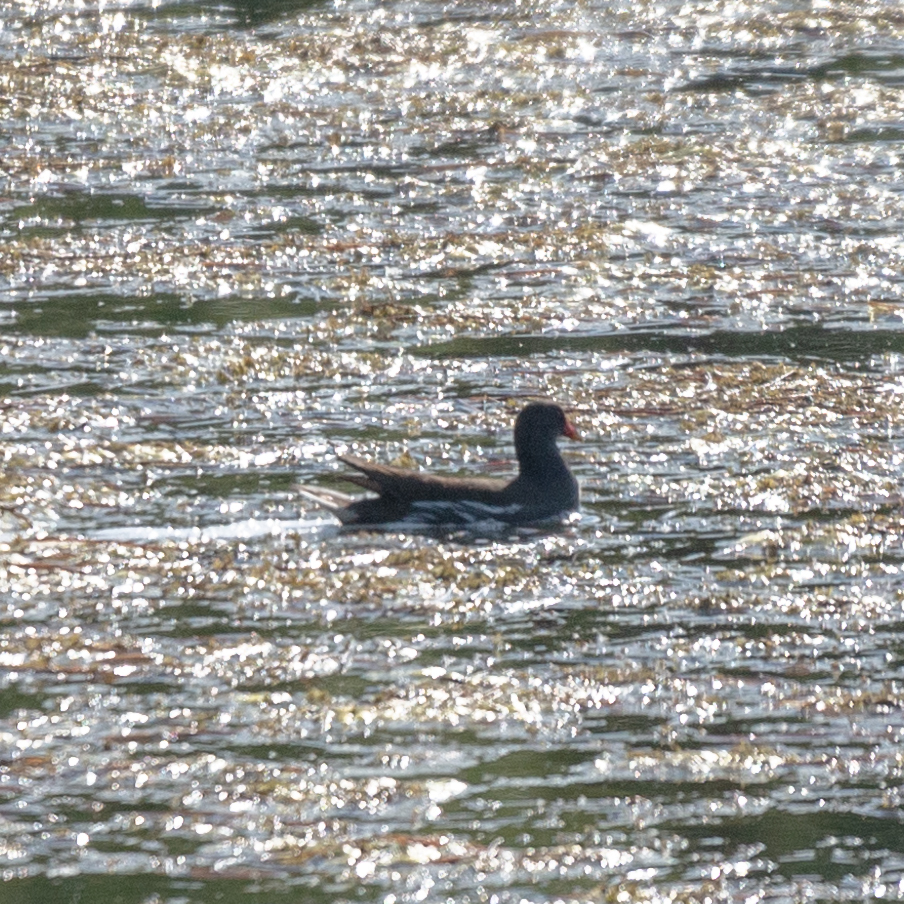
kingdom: Animalia
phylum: Chordata
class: Aves
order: Gruiformes
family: Rallidae
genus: Gallinula
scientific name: Gallinula chloropus
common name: Common moorhen
